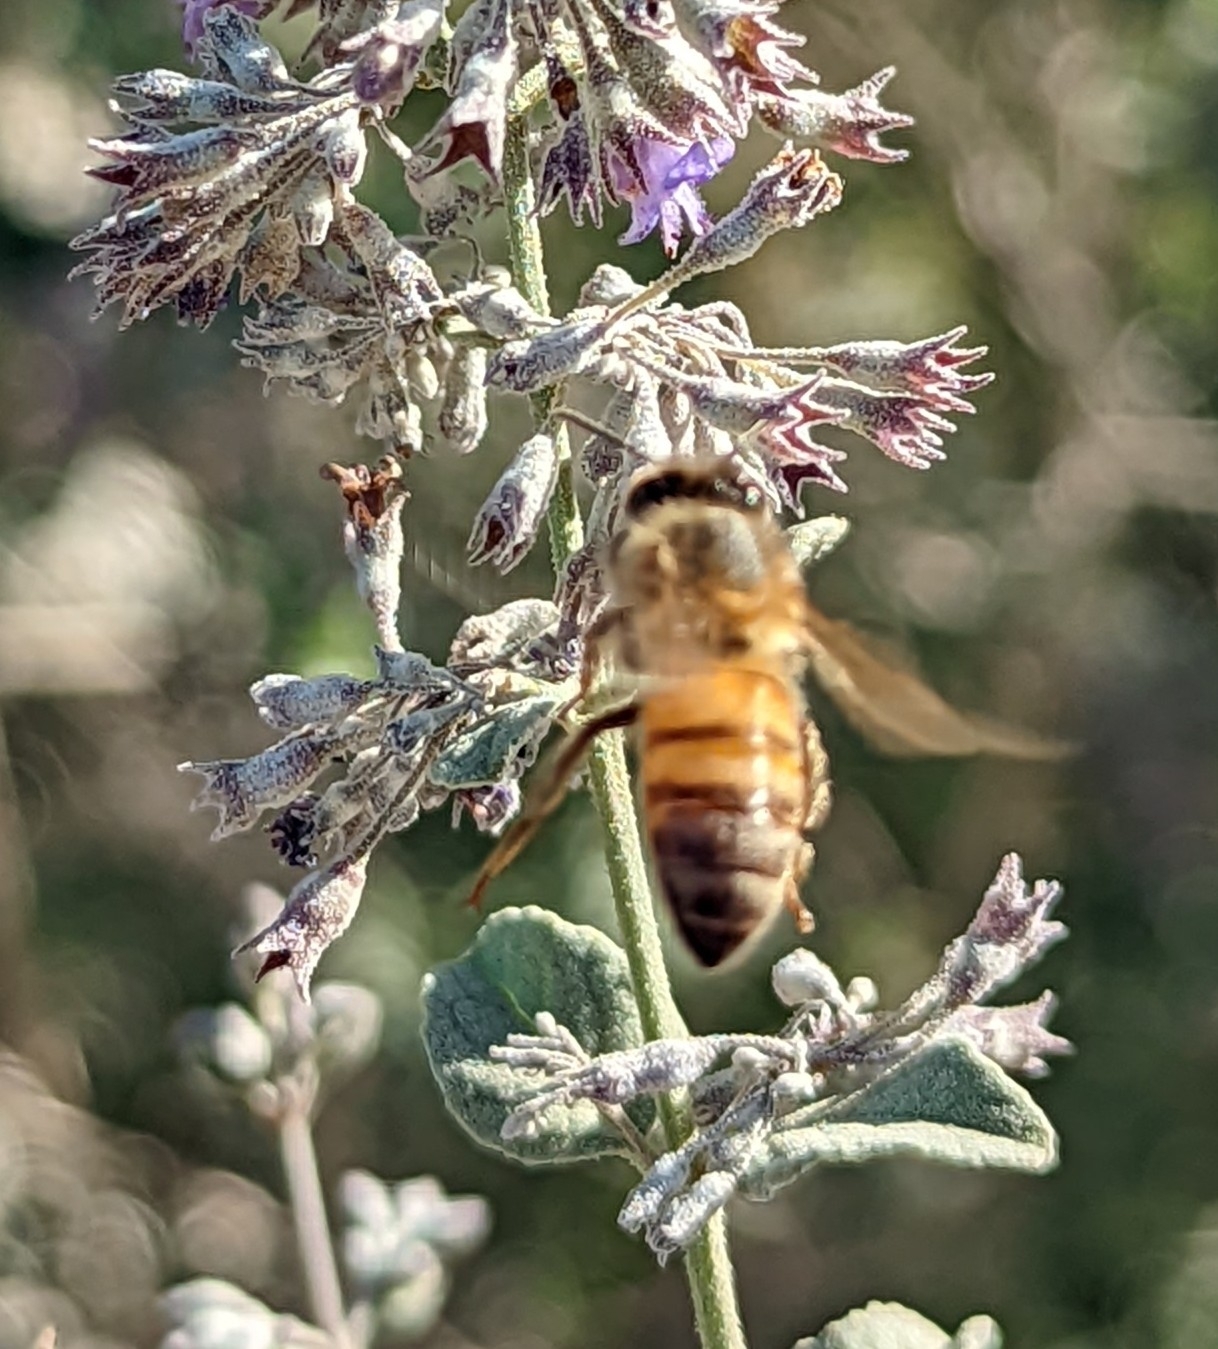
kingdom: Animalia
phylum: Arthropoda
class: Insecta
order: Hymenoptera
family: Apidae
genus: Apis
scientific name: Apis mellifera
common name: Honey bee
